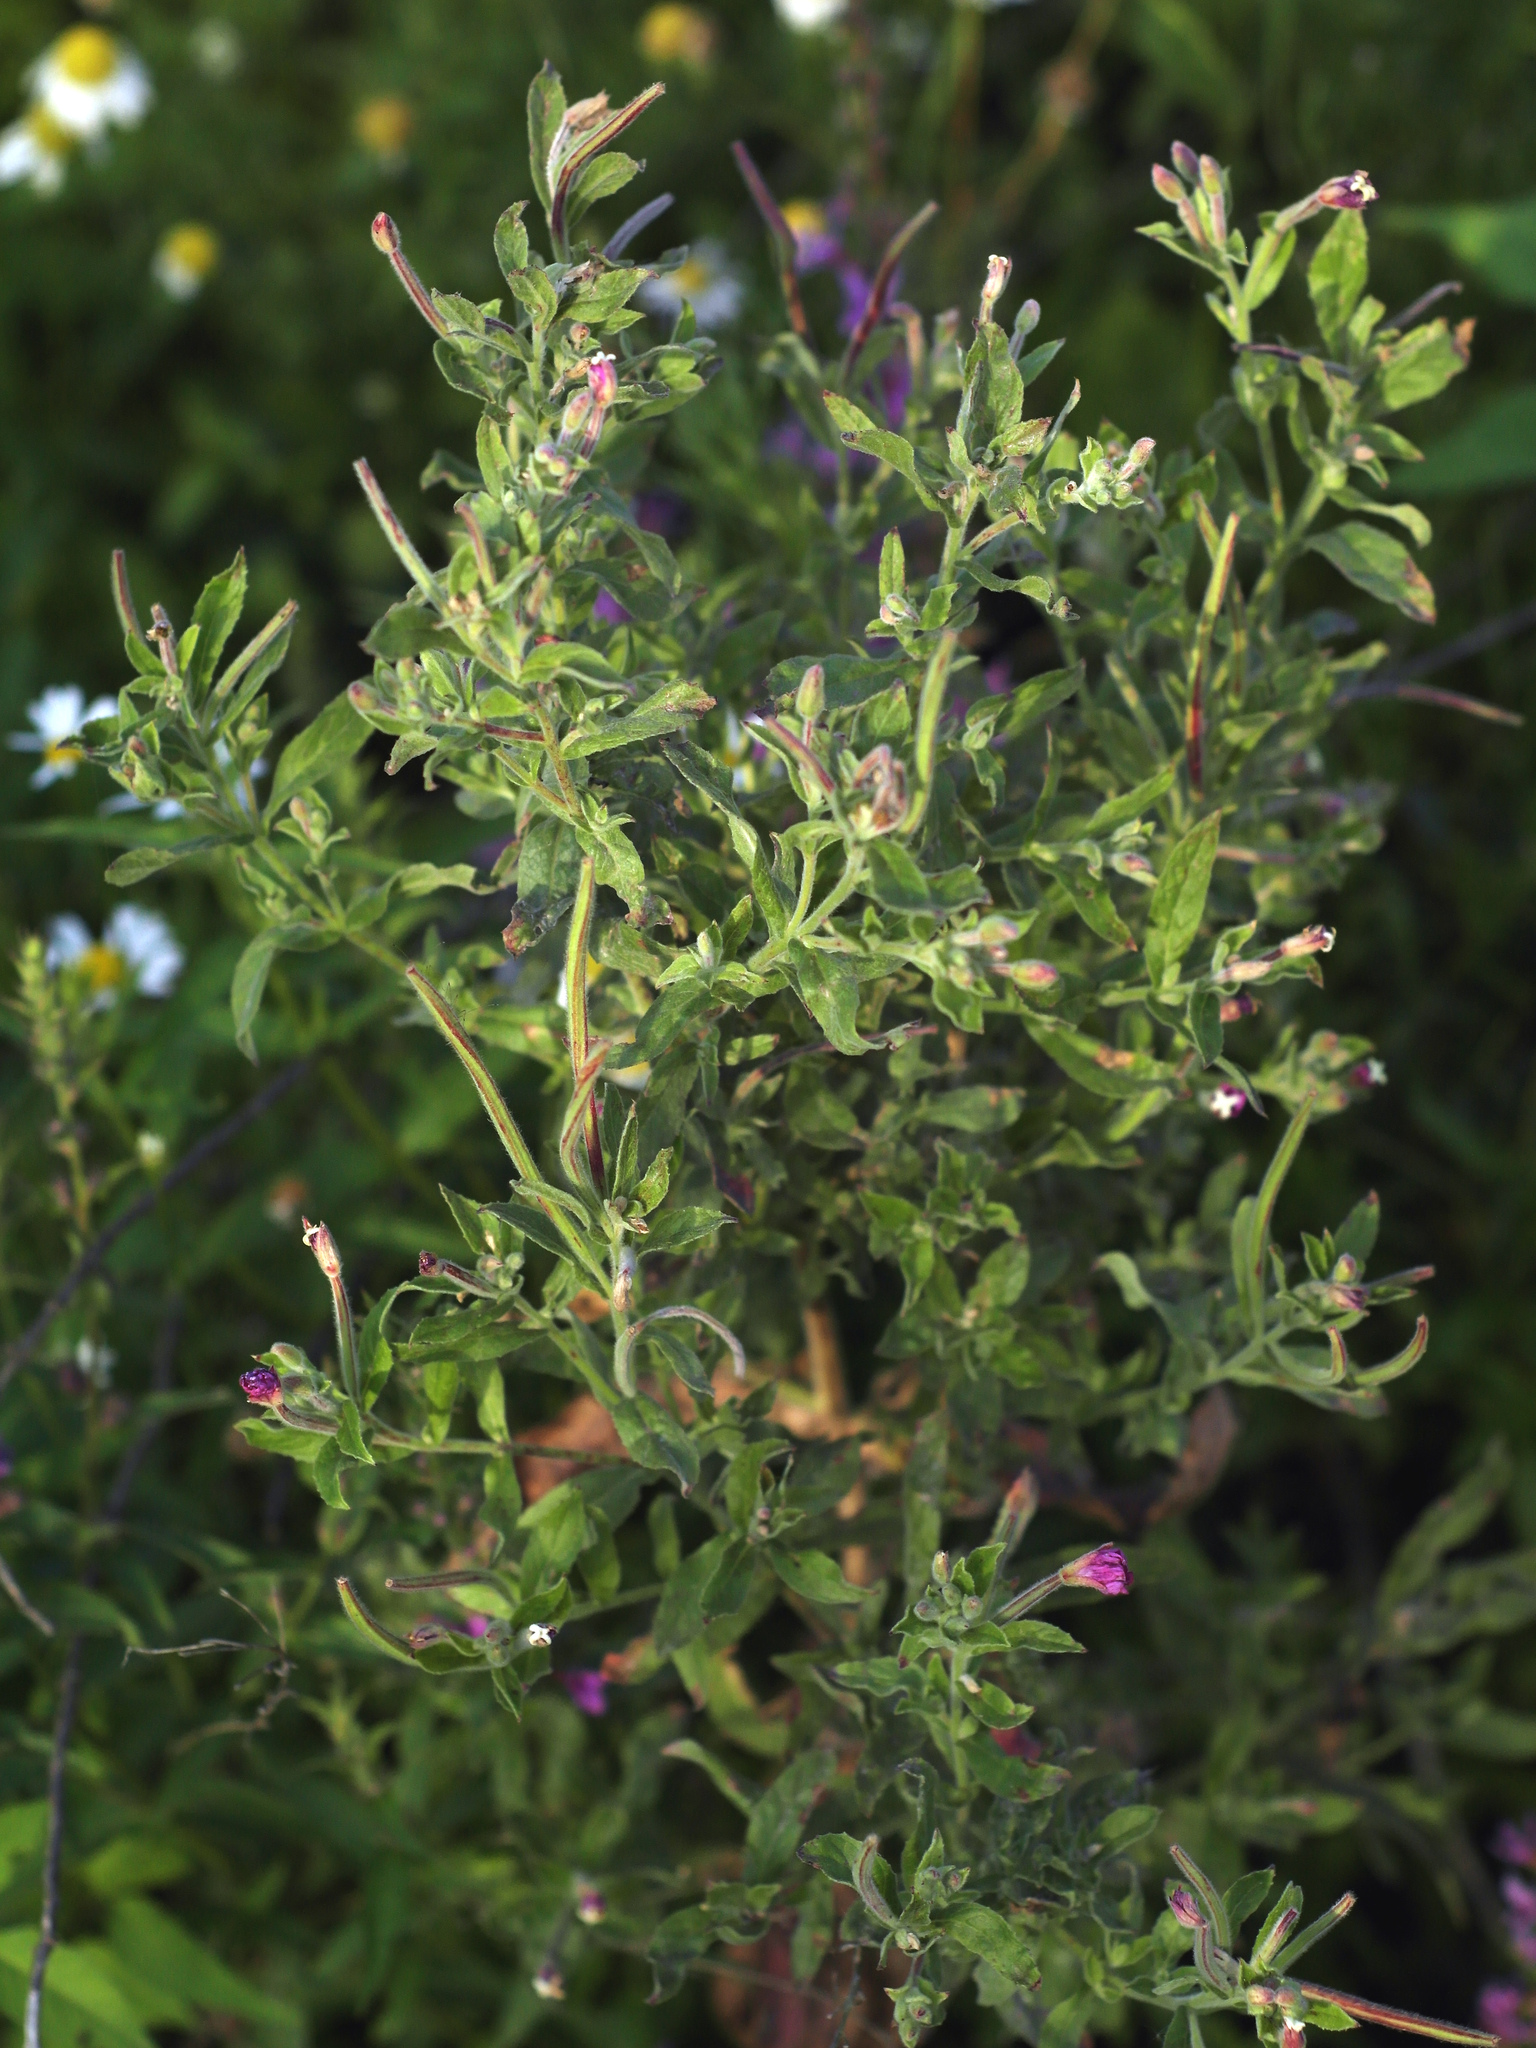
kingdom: Plantae
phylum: Tracheophyta
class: Magnoliopsida
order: Myrtales
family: Onagraceae
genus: Epilobium
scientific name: Epilobium hirsutum
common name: Great willowherb
